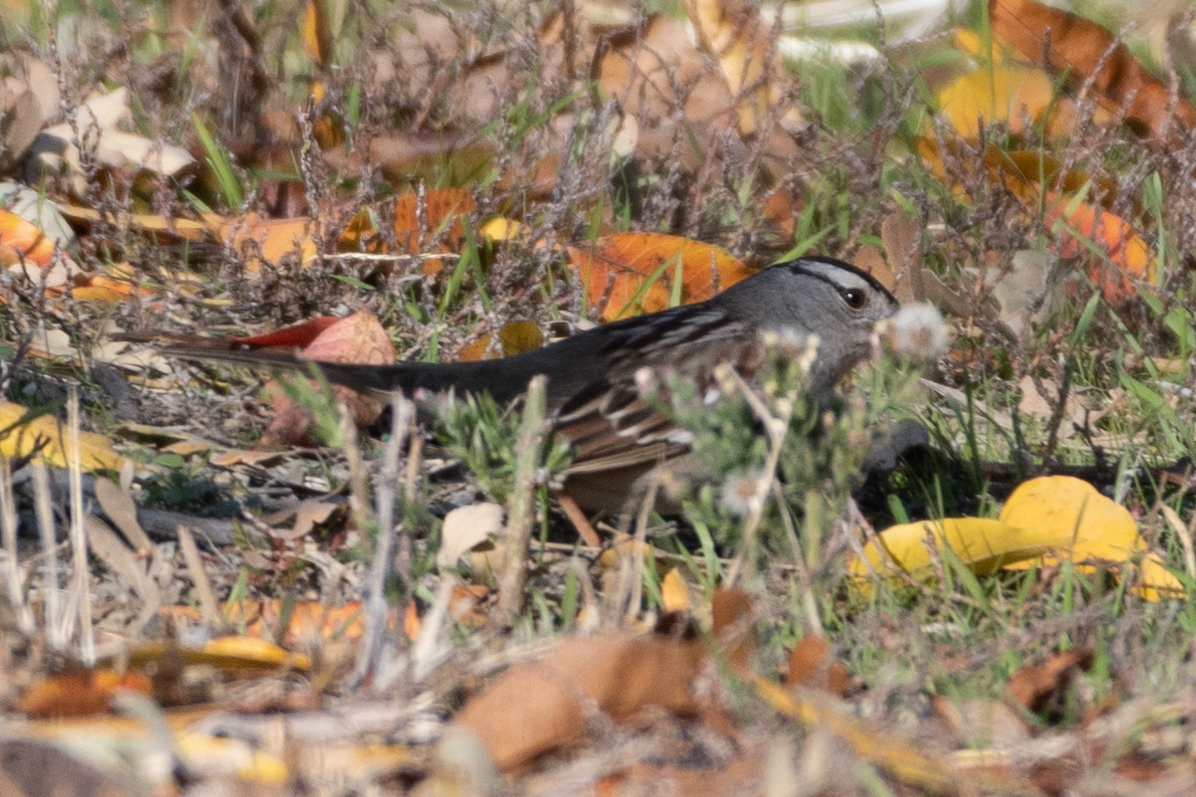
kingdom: Animalia
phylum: Chordata
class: Aves
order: Passeriformes
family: Passerellidae
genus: Zonotrichia
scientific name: Zonotrichia leucophrys
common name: White-crowned sparrow
